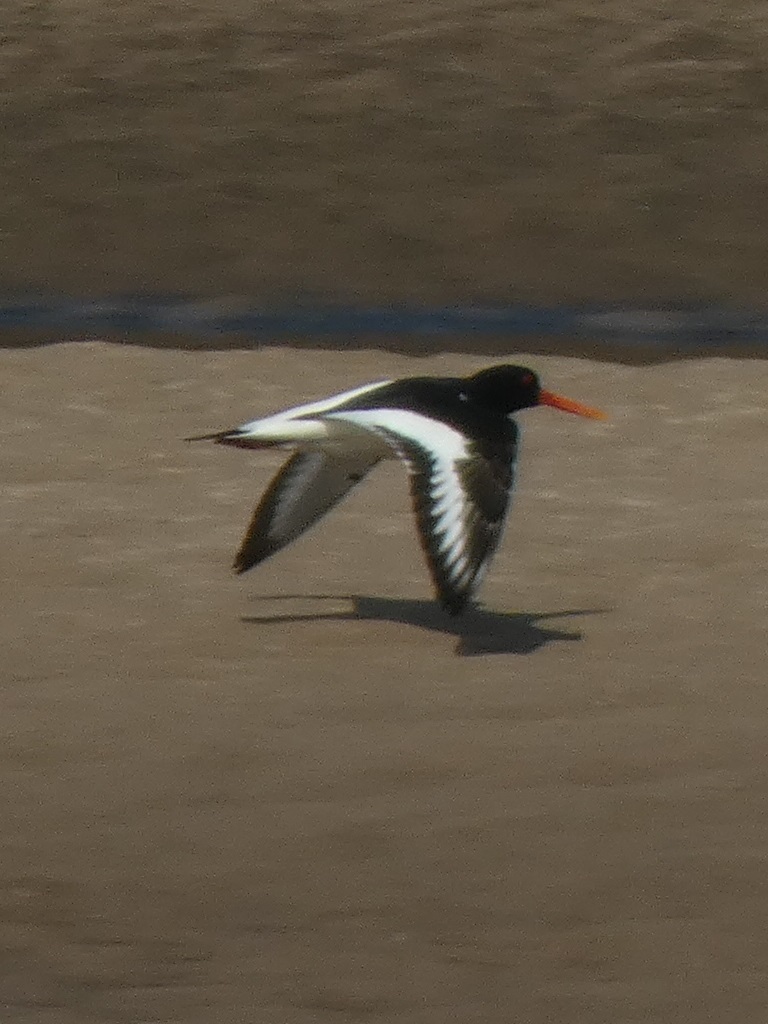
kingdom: Animalia
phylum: Chordata
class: Aves
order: Charadriiformes
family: Haematopodidae
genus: Haematopus
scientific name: Haematopus ostralegus
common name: Eurasian oystercatcher
